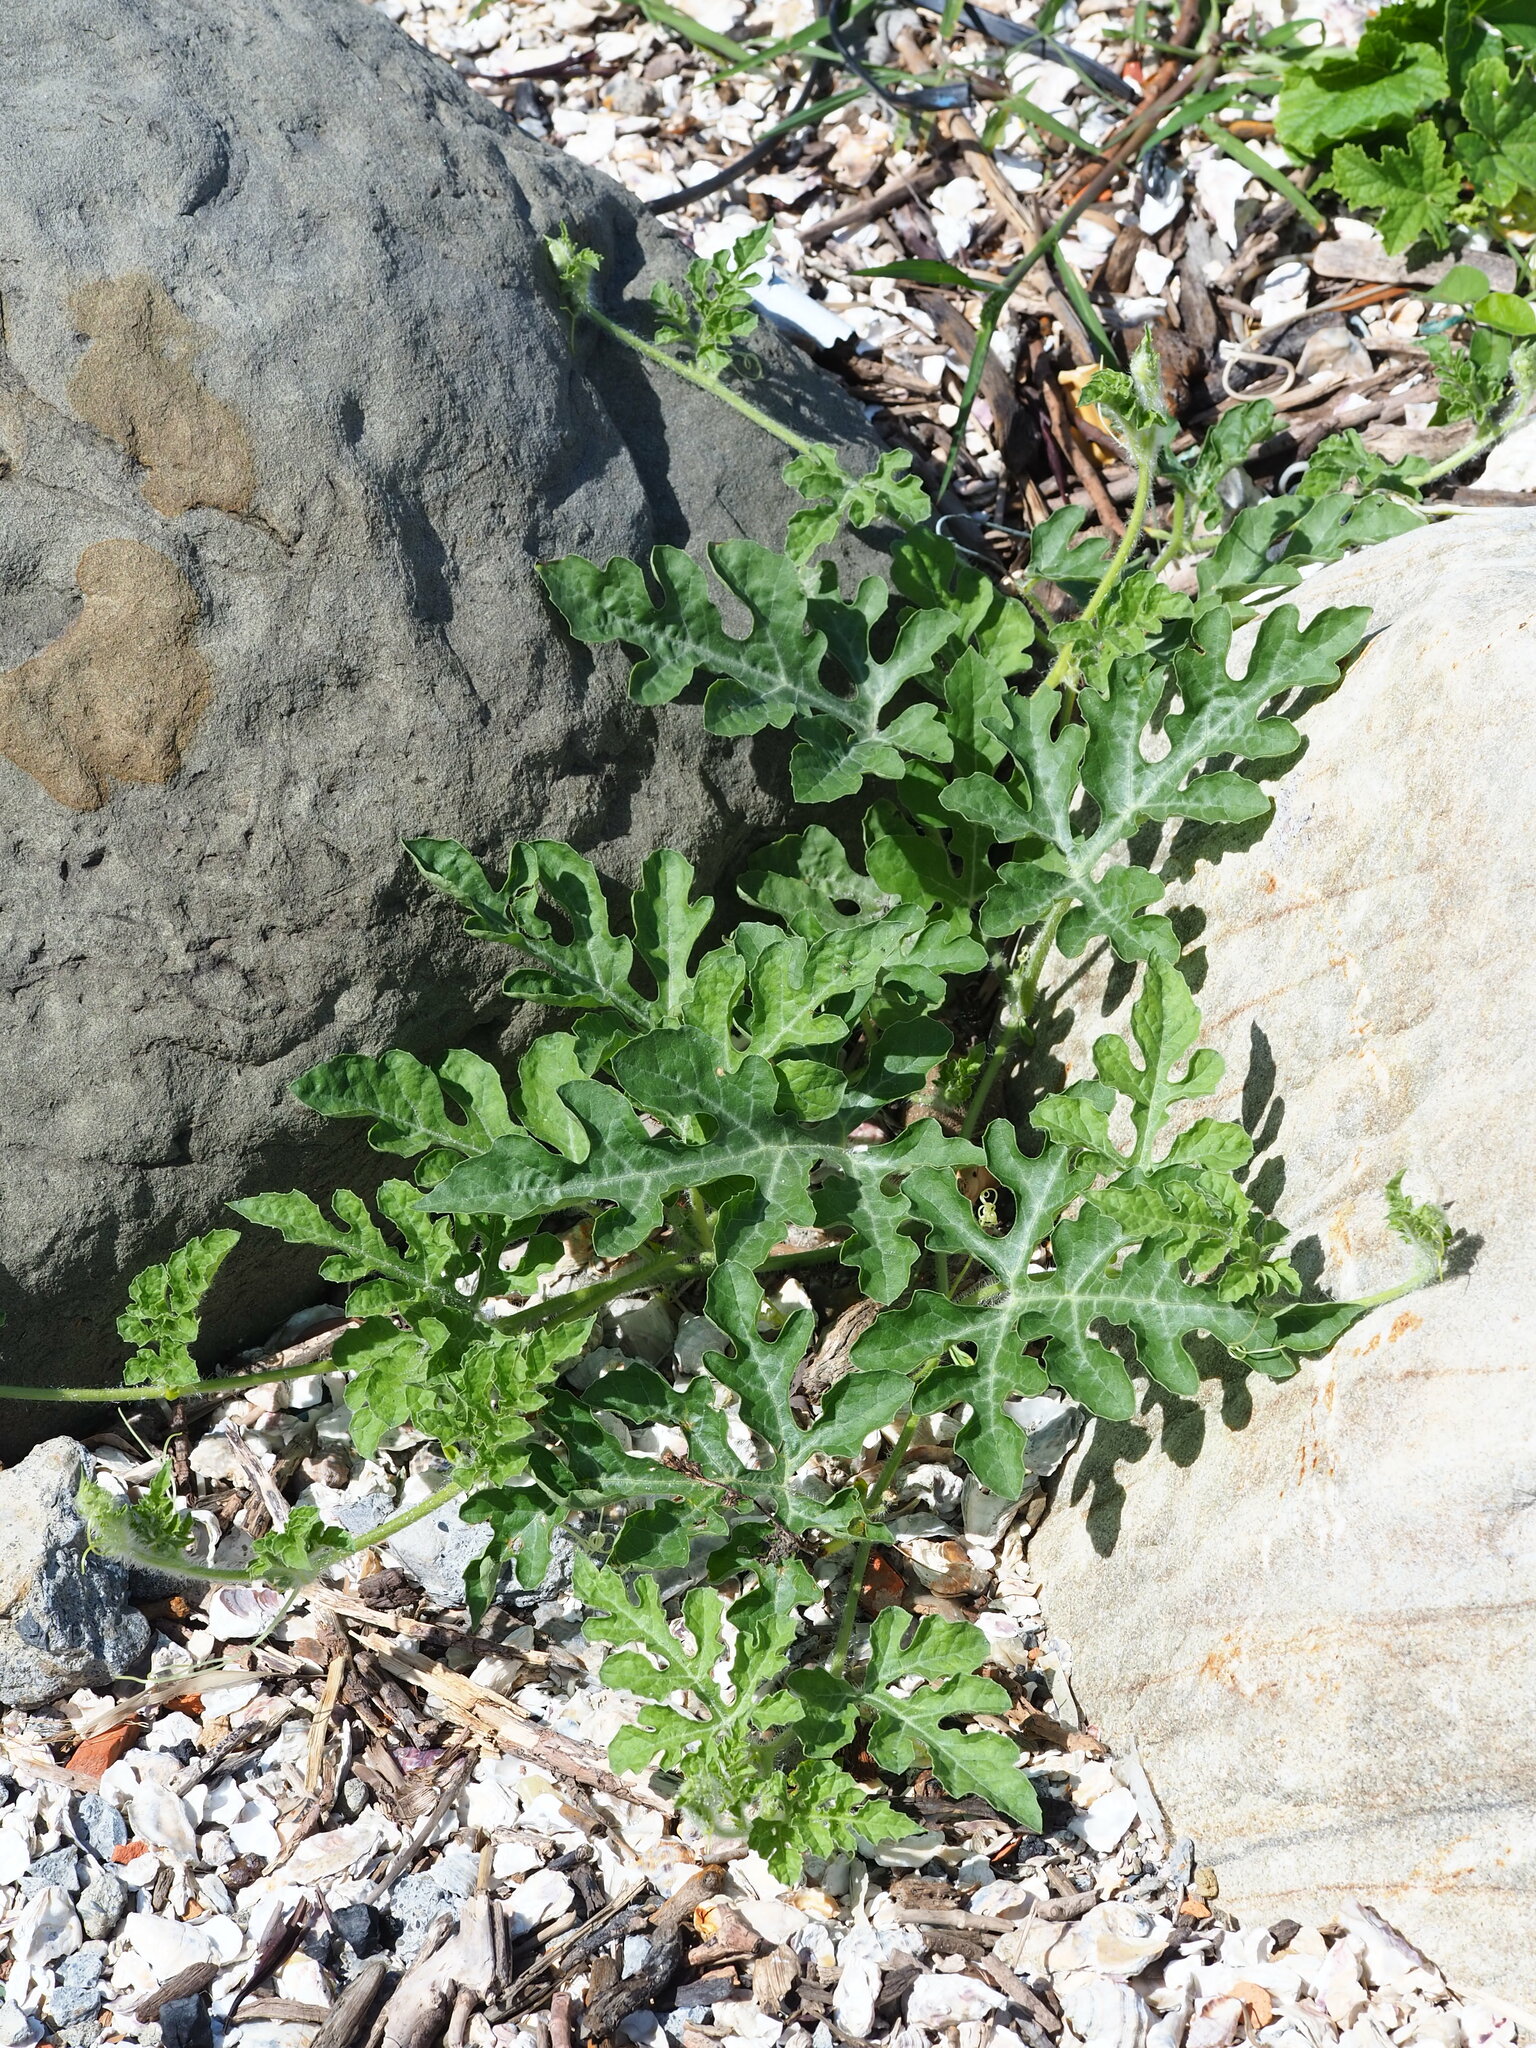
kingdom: Plantae
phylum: Tracheophyta
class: Magnoliopsida
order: Cucurbitales
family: Cucurbitaceae
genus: Citrullus
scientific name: Citrullus lanatus
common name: Watermelon
